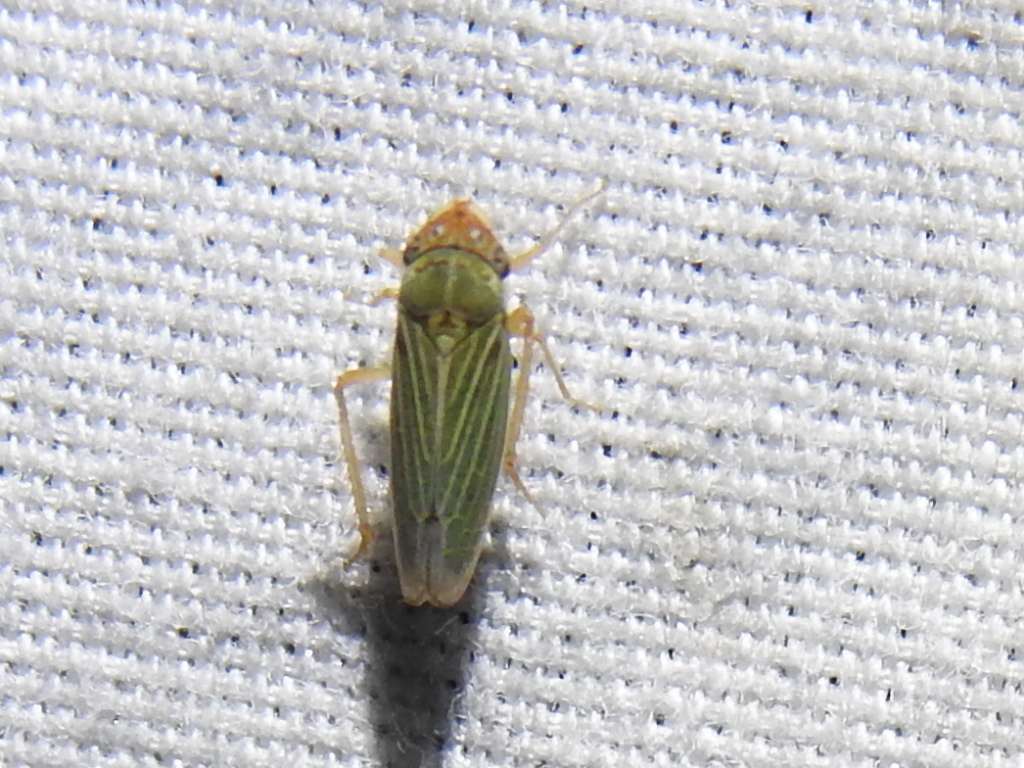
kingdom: Animalia
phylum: Arthropoda
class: Insecta
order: Hemiptera
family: Cicadellidae
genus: Xyphon
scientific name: Xyphon reticulatum
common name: Planthopper
